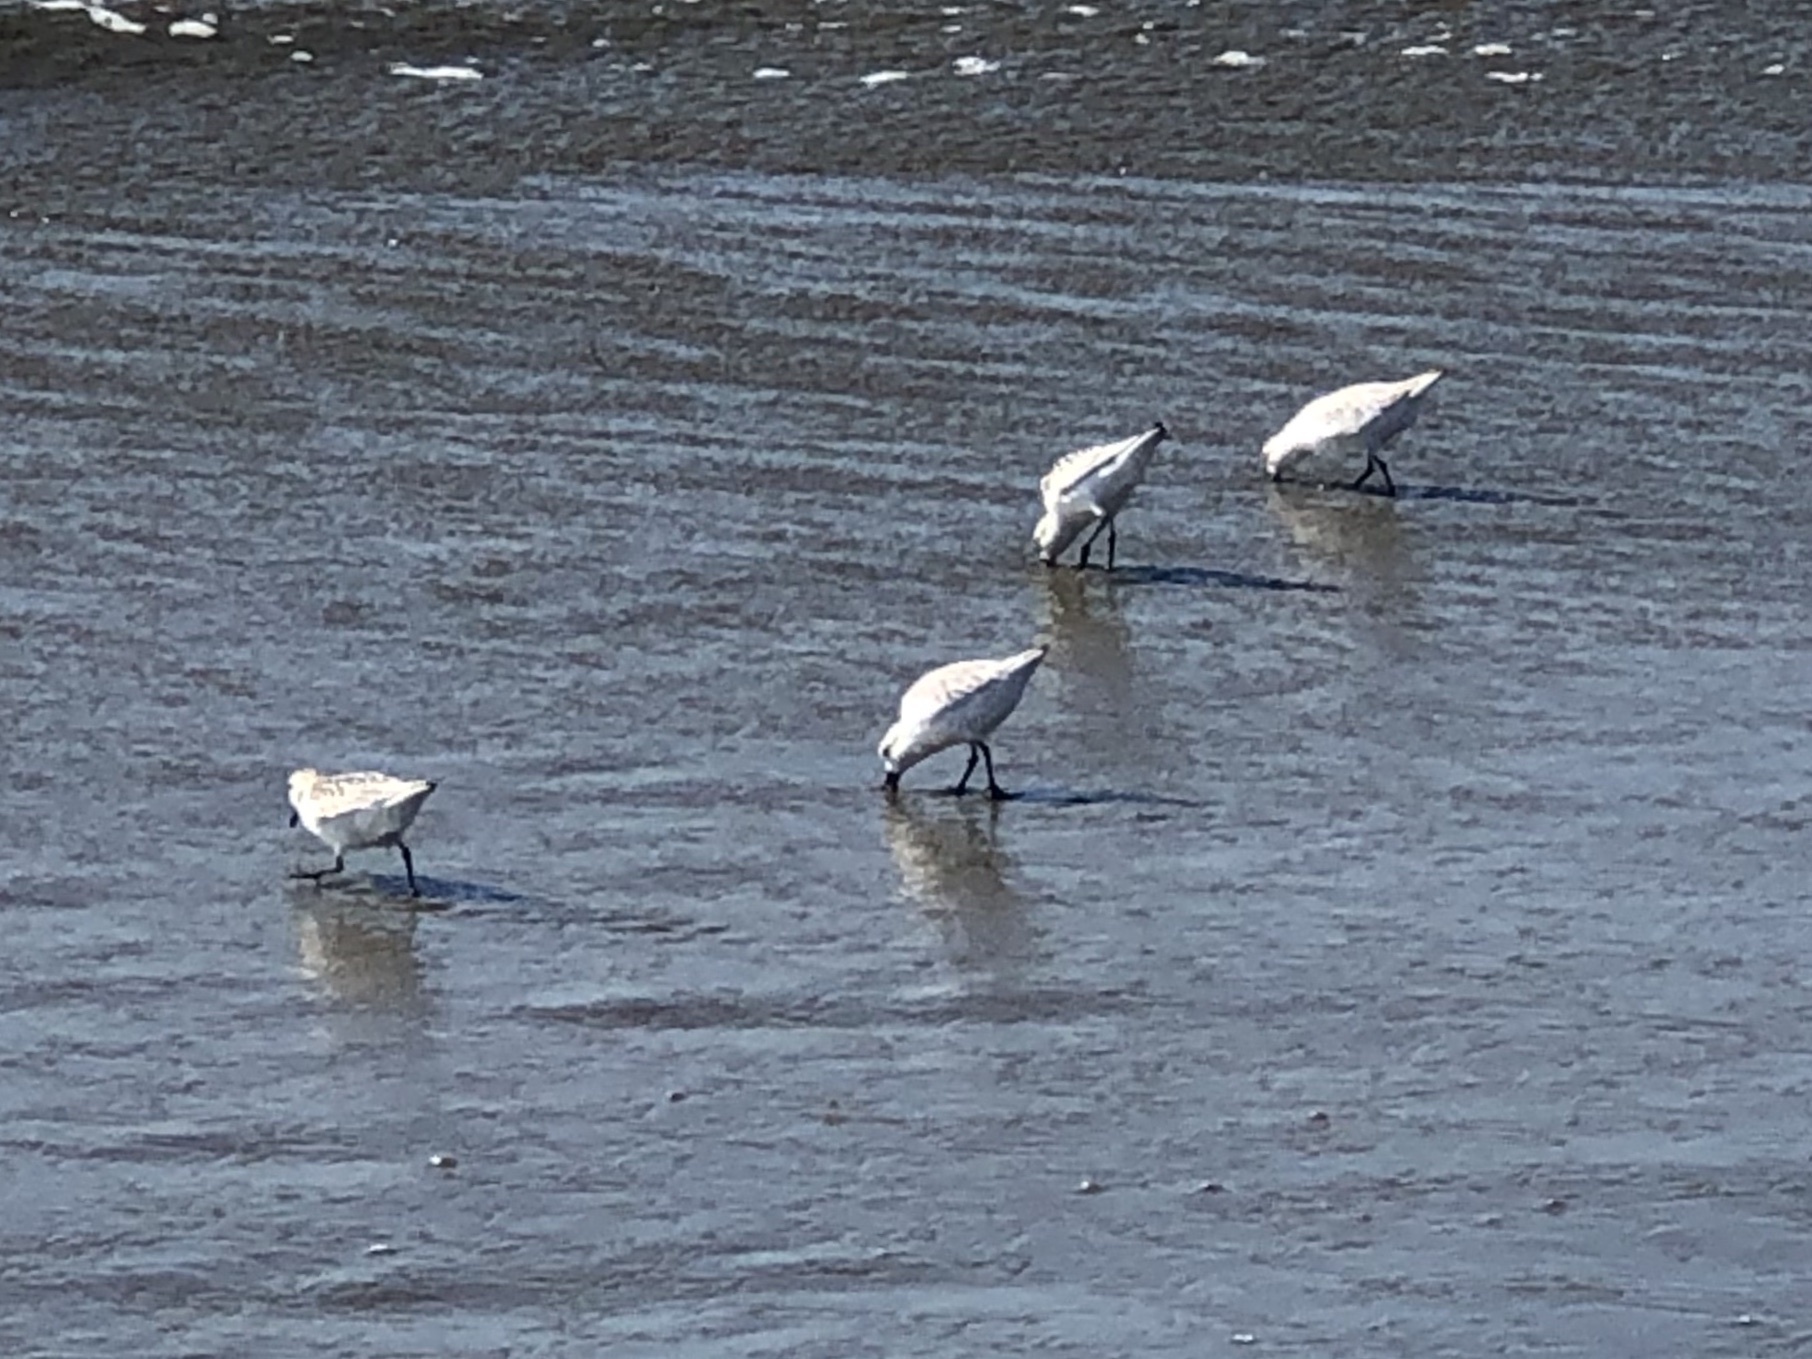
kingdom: Animalia
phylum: Chordata
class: Aves
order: Charadriiformes
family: Scolopacidae
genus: Calidris
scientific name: Calidris alba
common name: Sanderling
